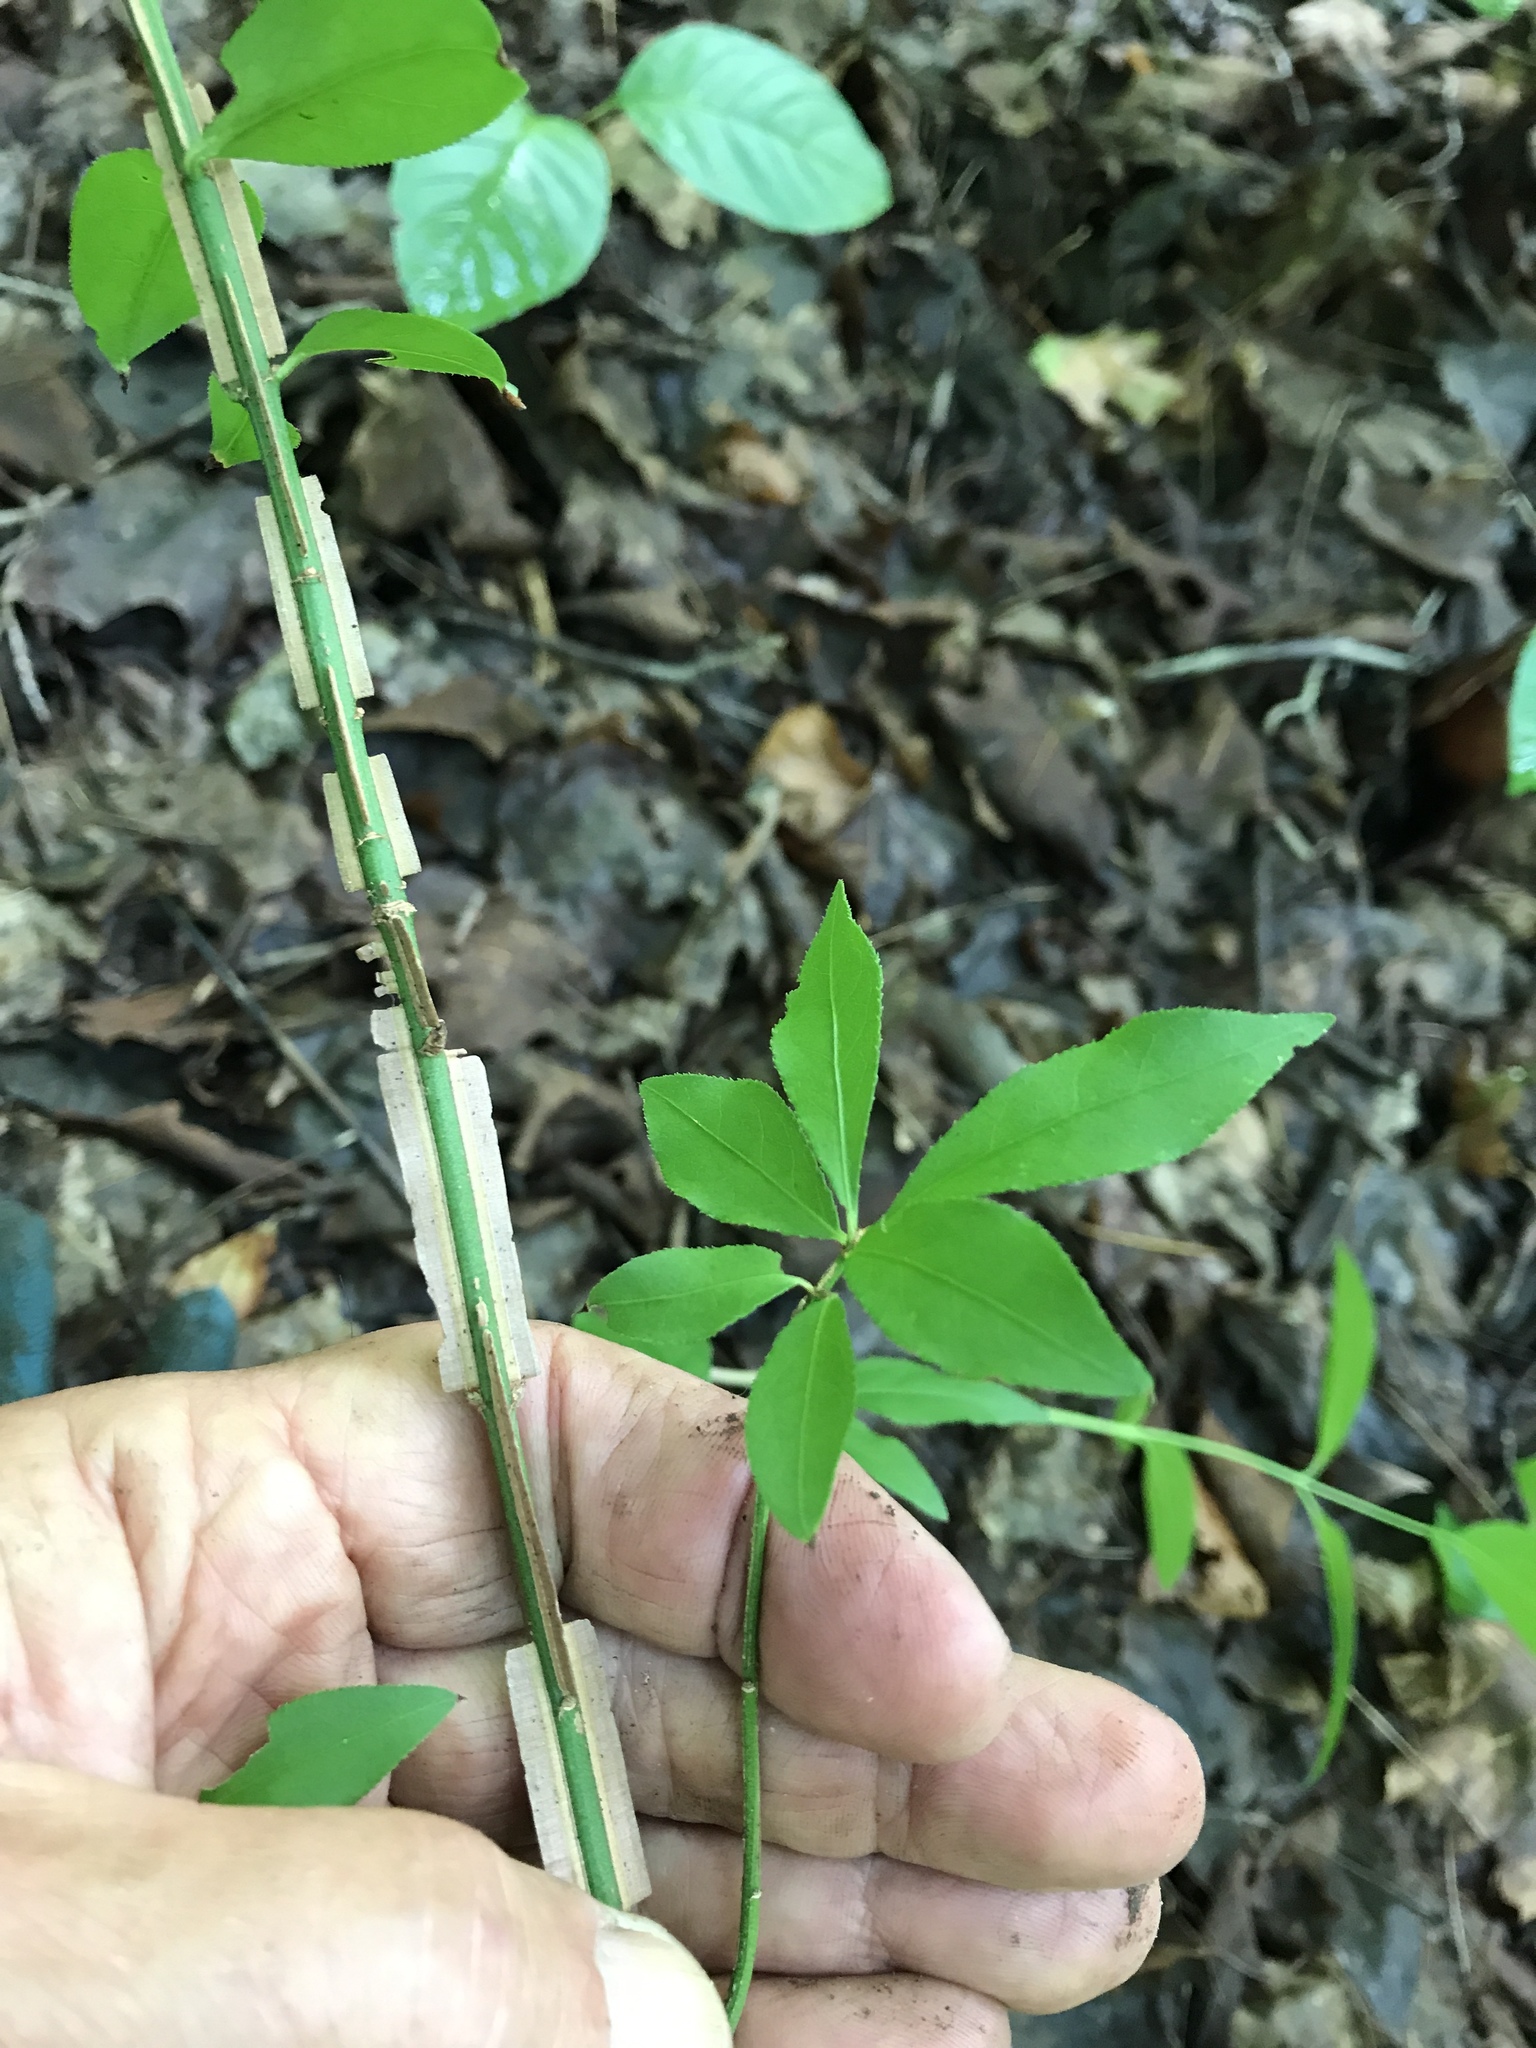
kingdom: Plantae
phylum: Tracheophyta
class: Magnoliopsida
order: Celastrales
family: Celastraceae
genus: Euonymus
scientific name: Euonymus alatus
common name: Winged euonymus
